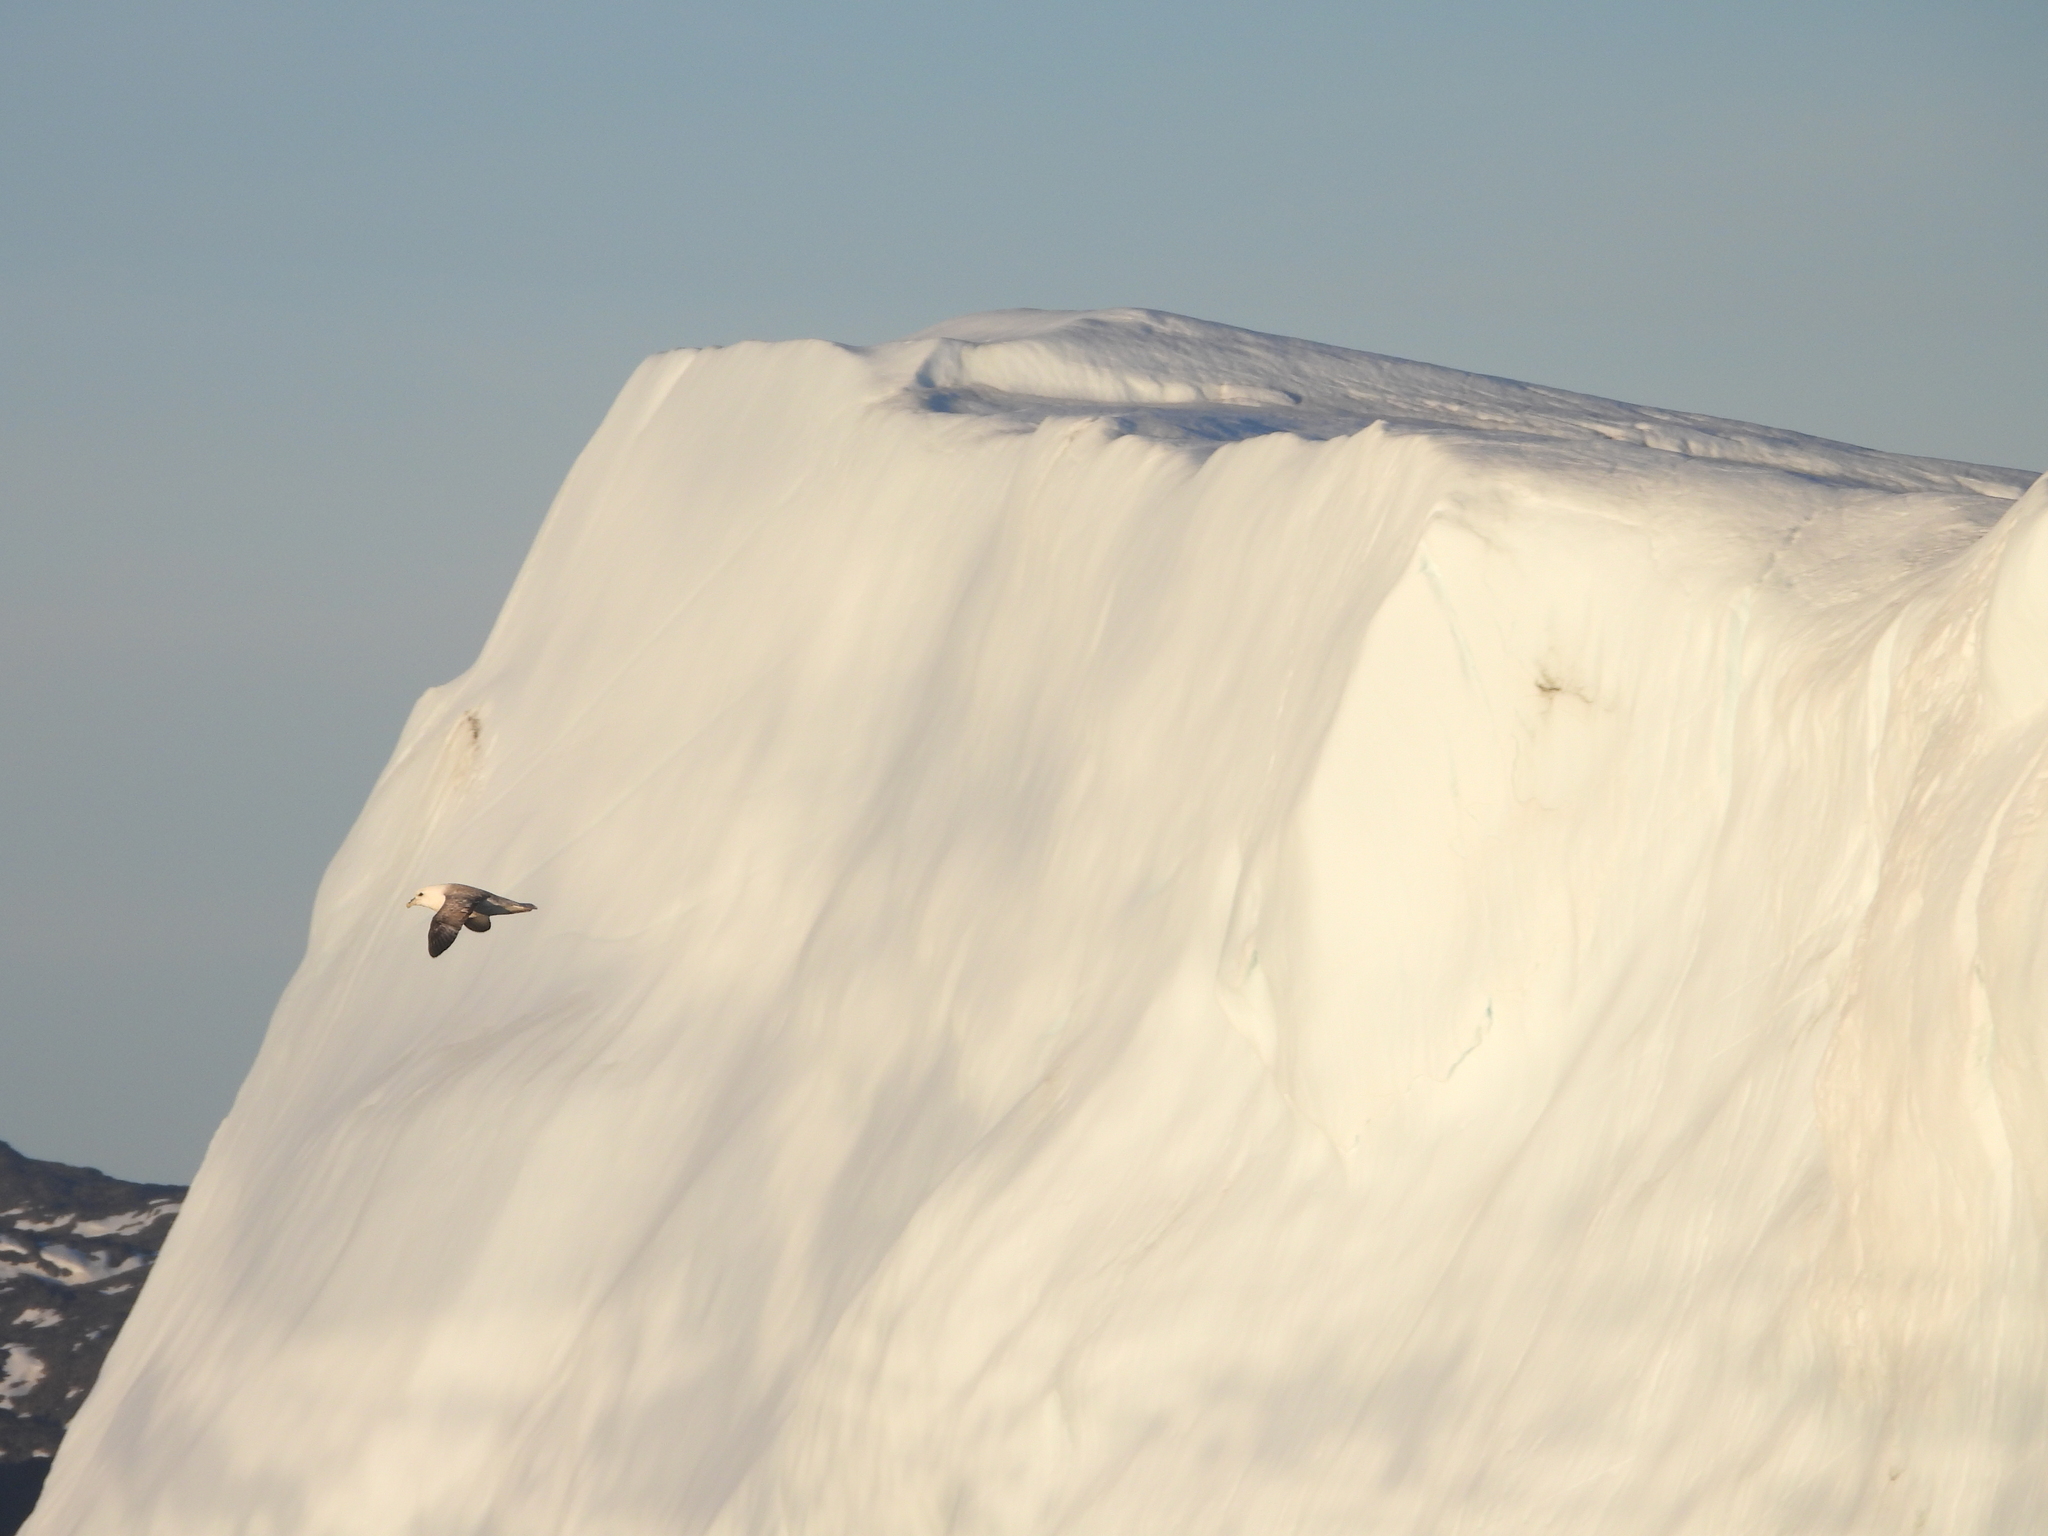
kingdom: Animalia
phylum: Chordata
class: Aves
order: Procellariiformes
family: Procellariidae
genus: Fulmarus
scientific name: Fulmarus glacialis
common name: Northern fulmar
